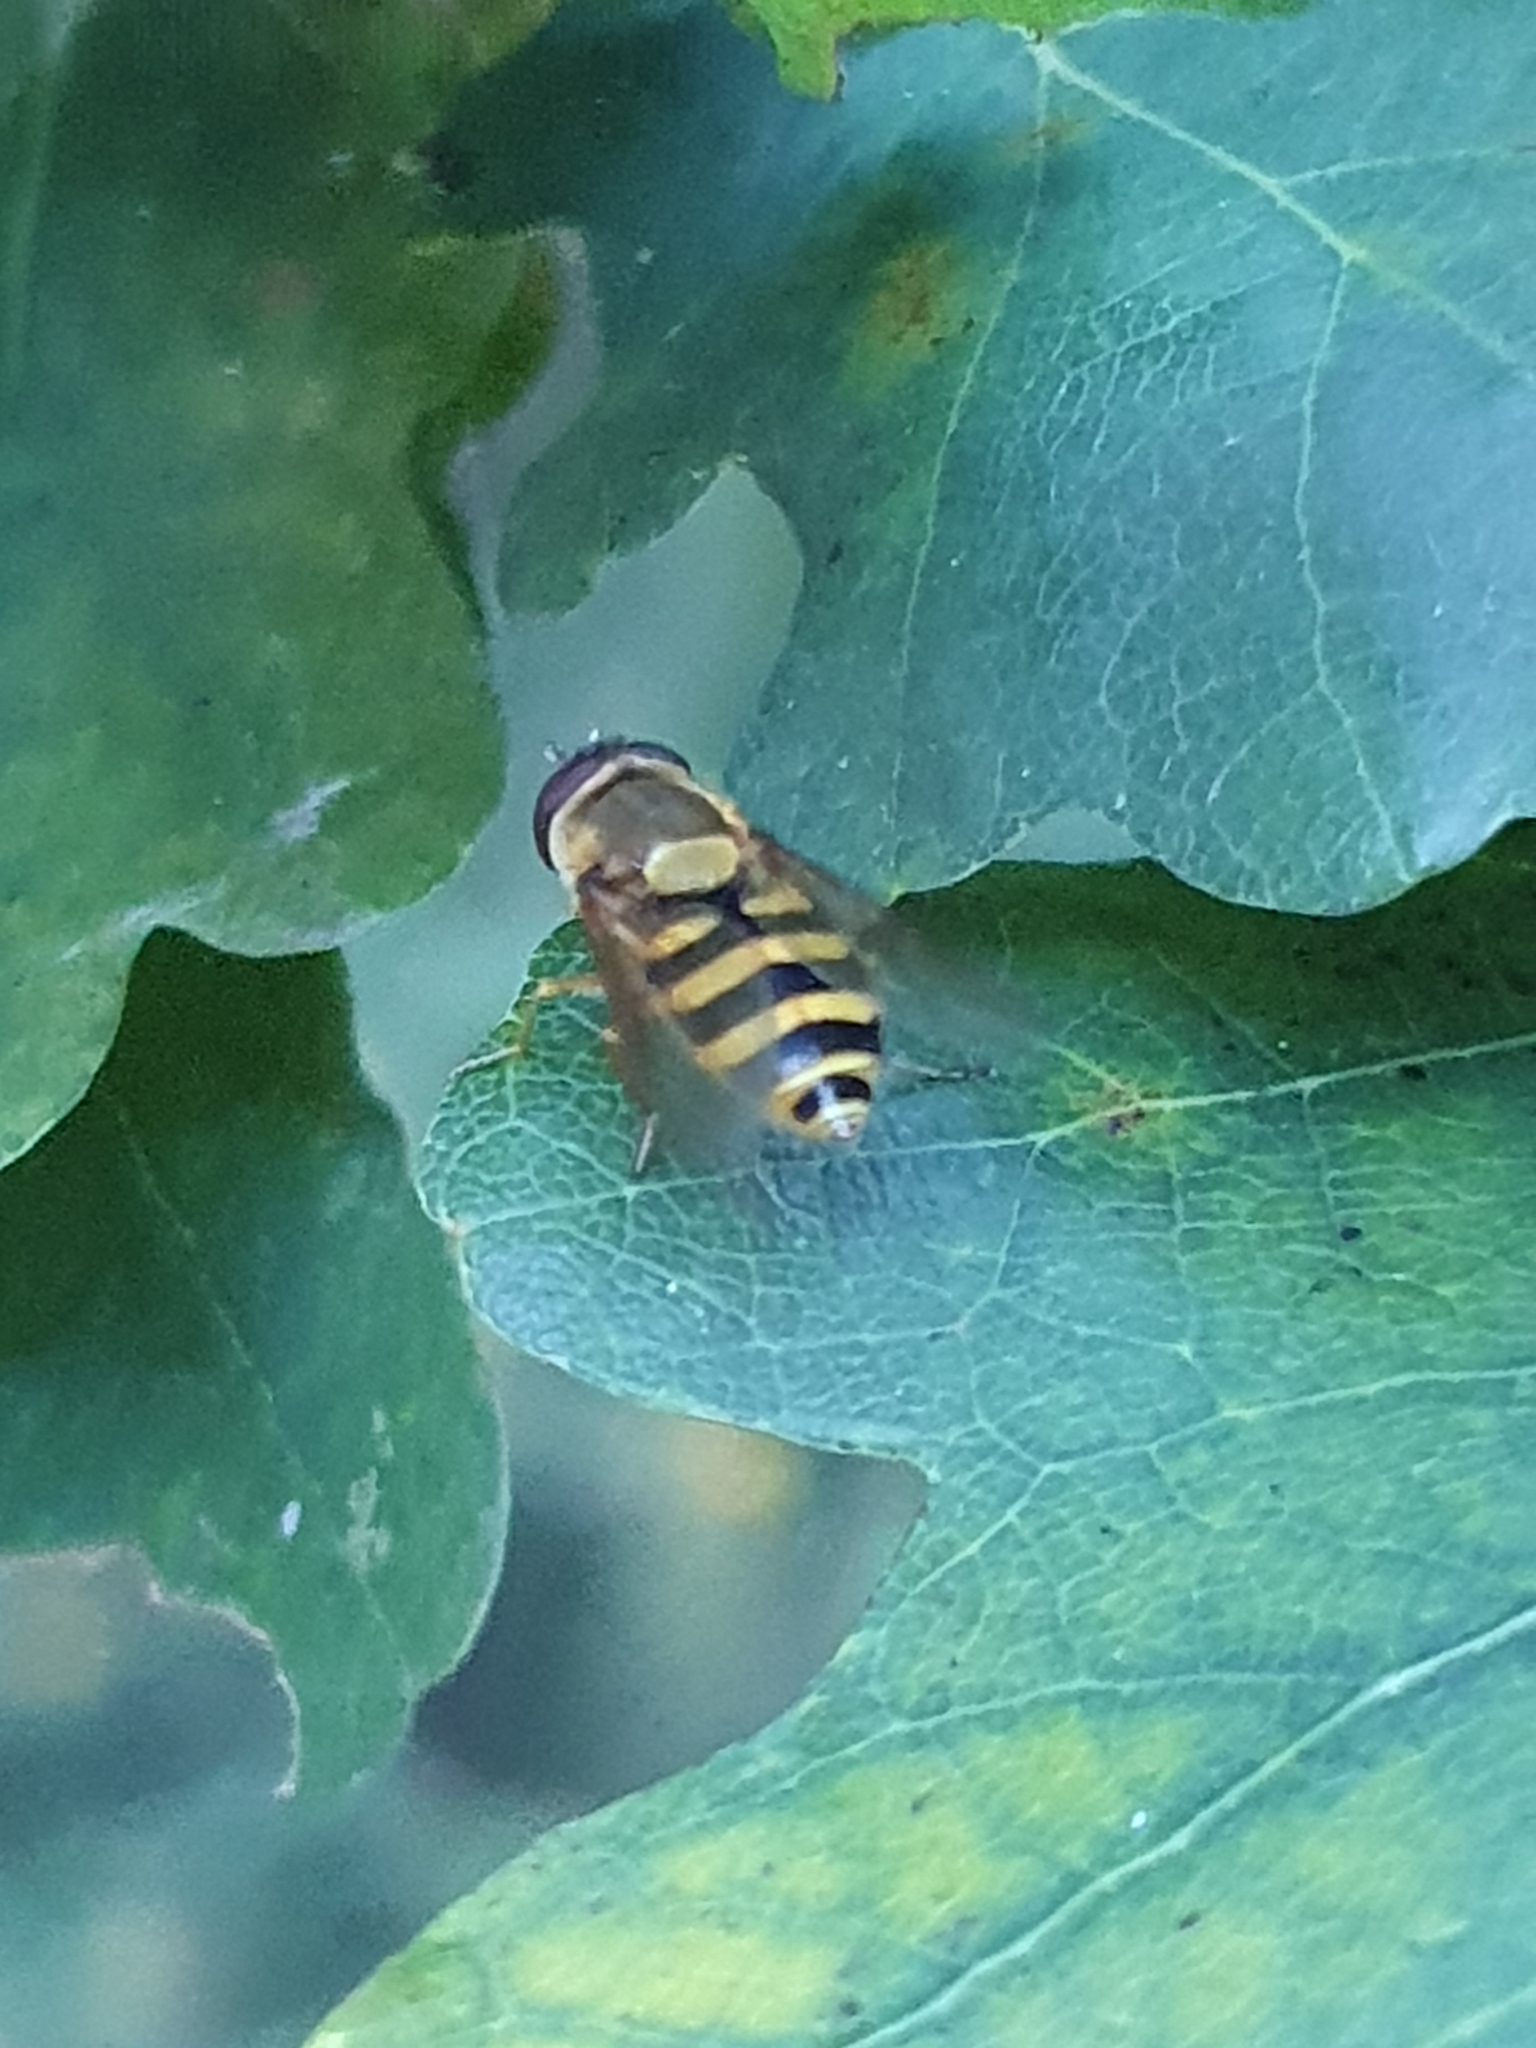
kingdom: Animalia
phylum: Arthropoda
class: Insecta
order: Diptera
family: Syrphidae
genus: Syrphus
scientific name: Syrphus
